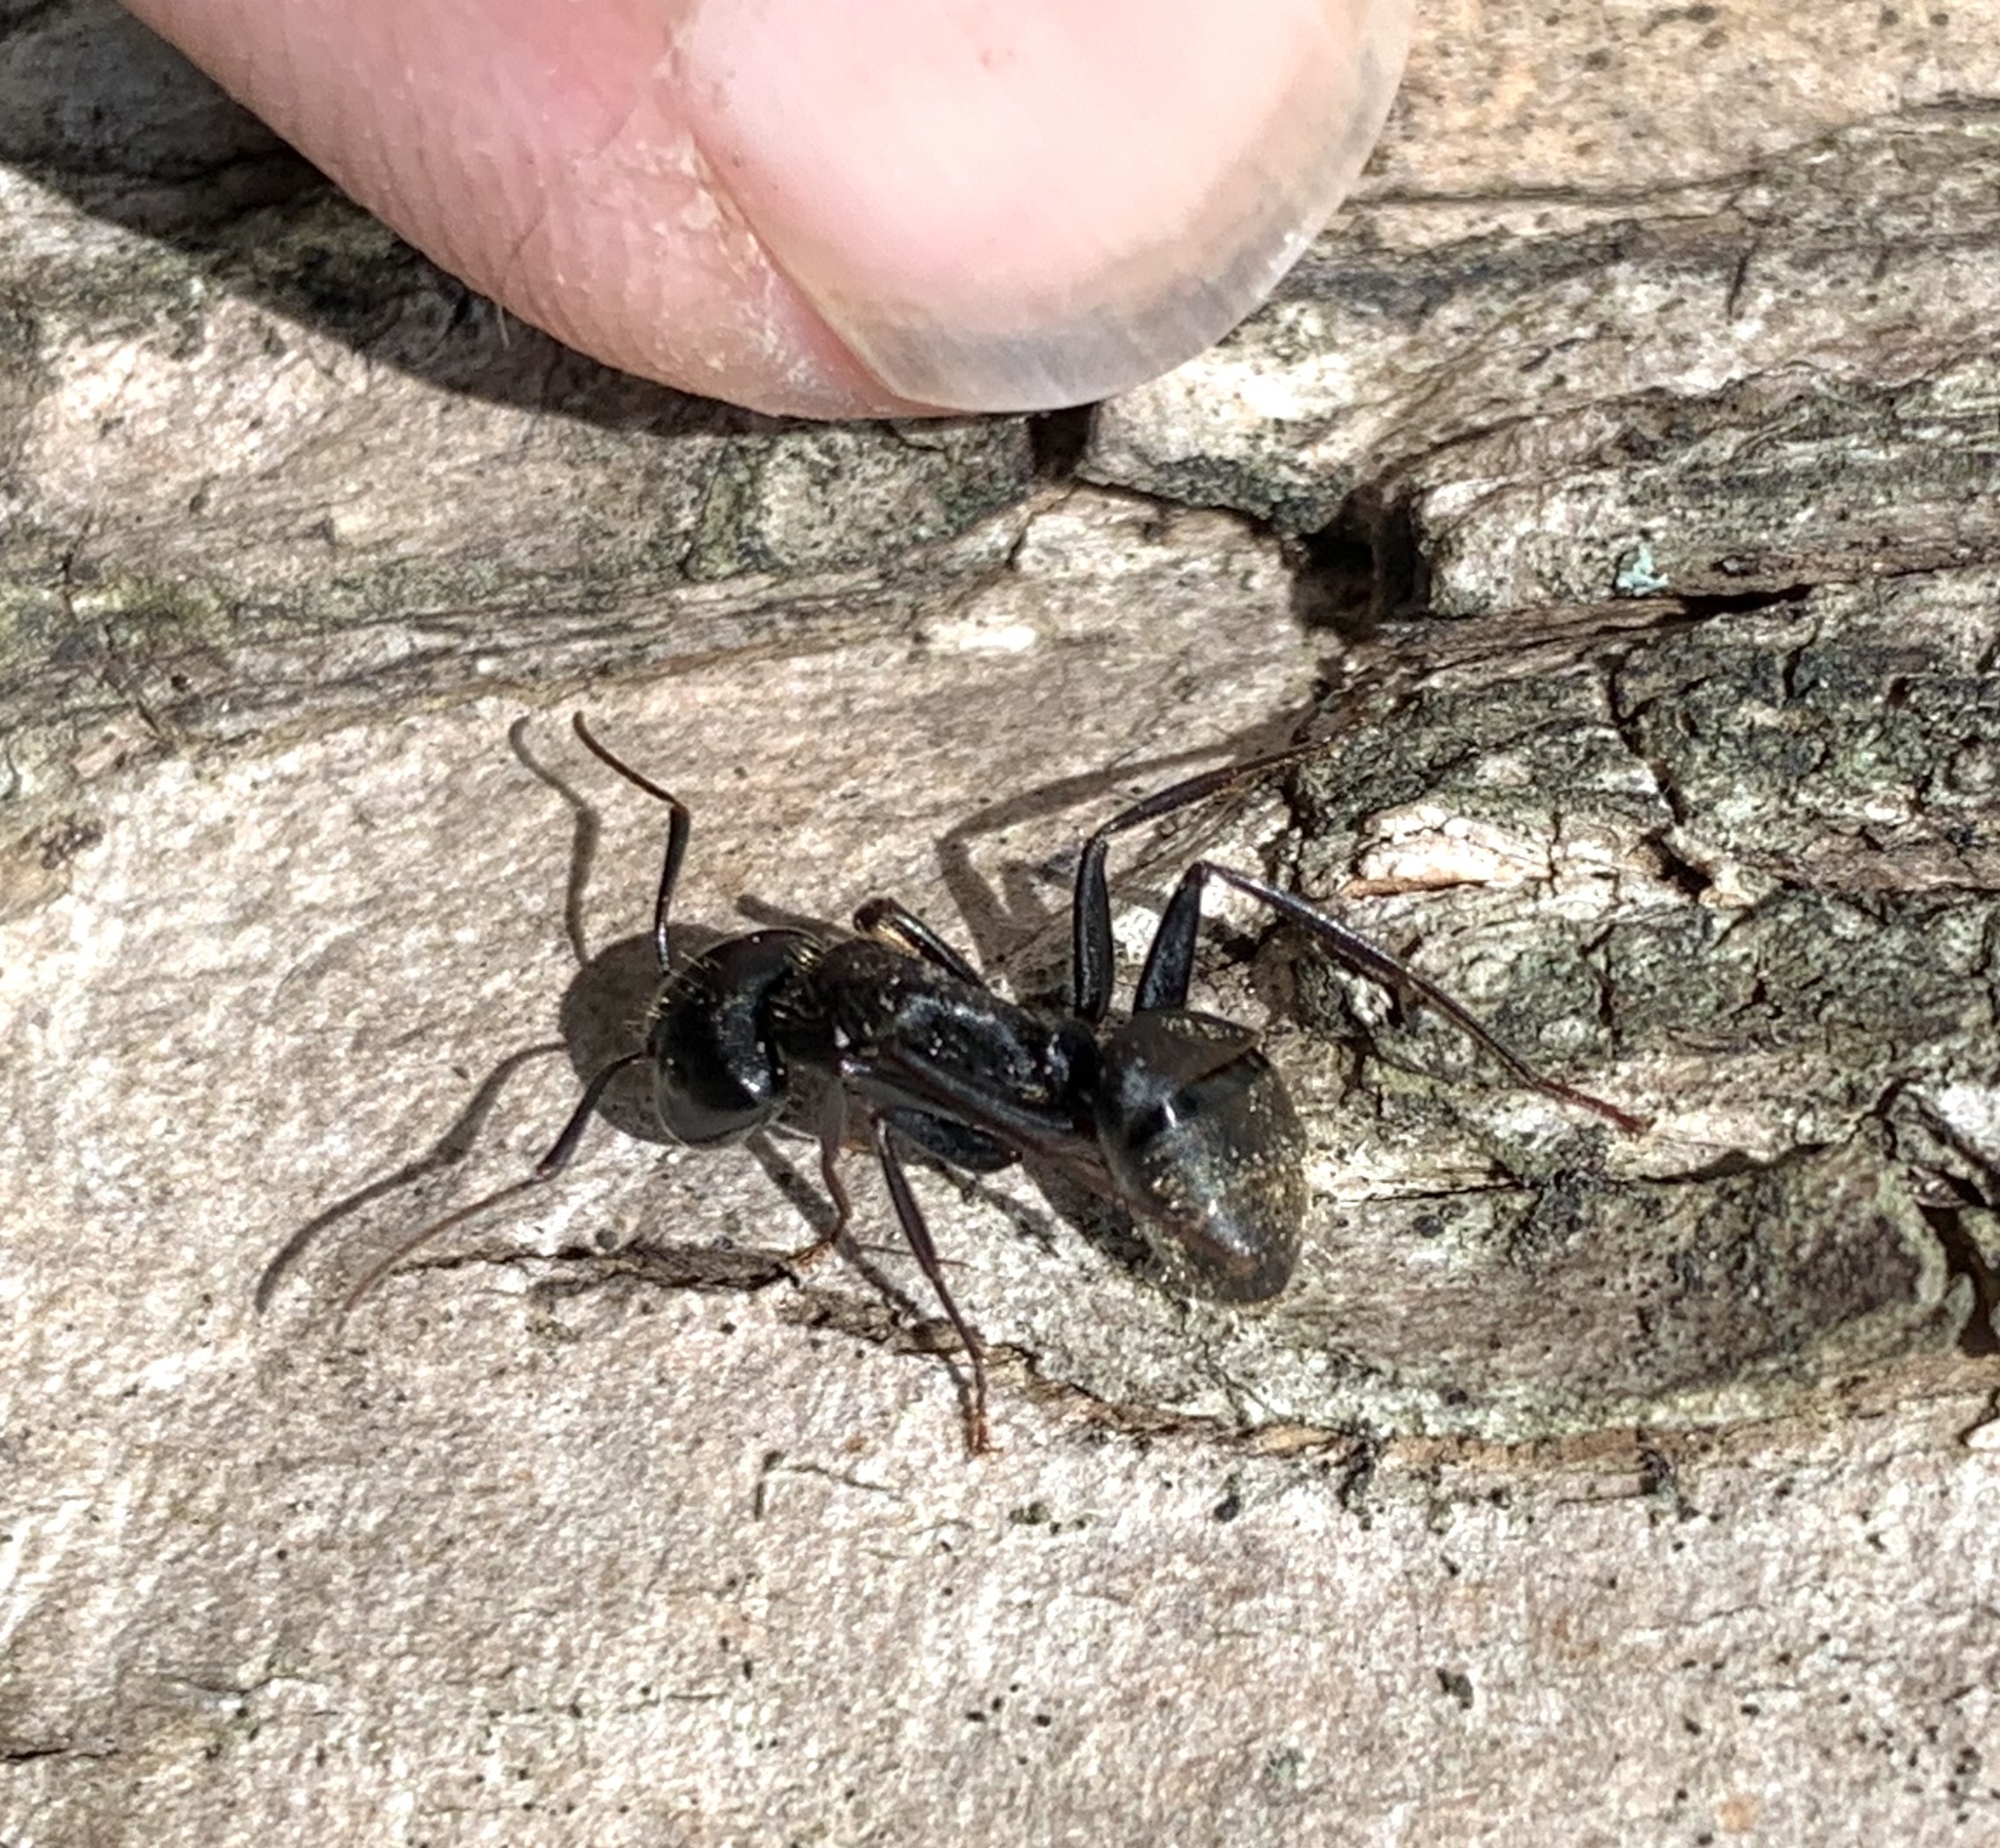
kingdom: Animalia
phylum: Arthropoda
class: Insecta
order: Hymenoptera
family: Formicidae
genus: Camponotus
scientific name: Camponotus pennsylvanicus
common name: Black carpenter ant
